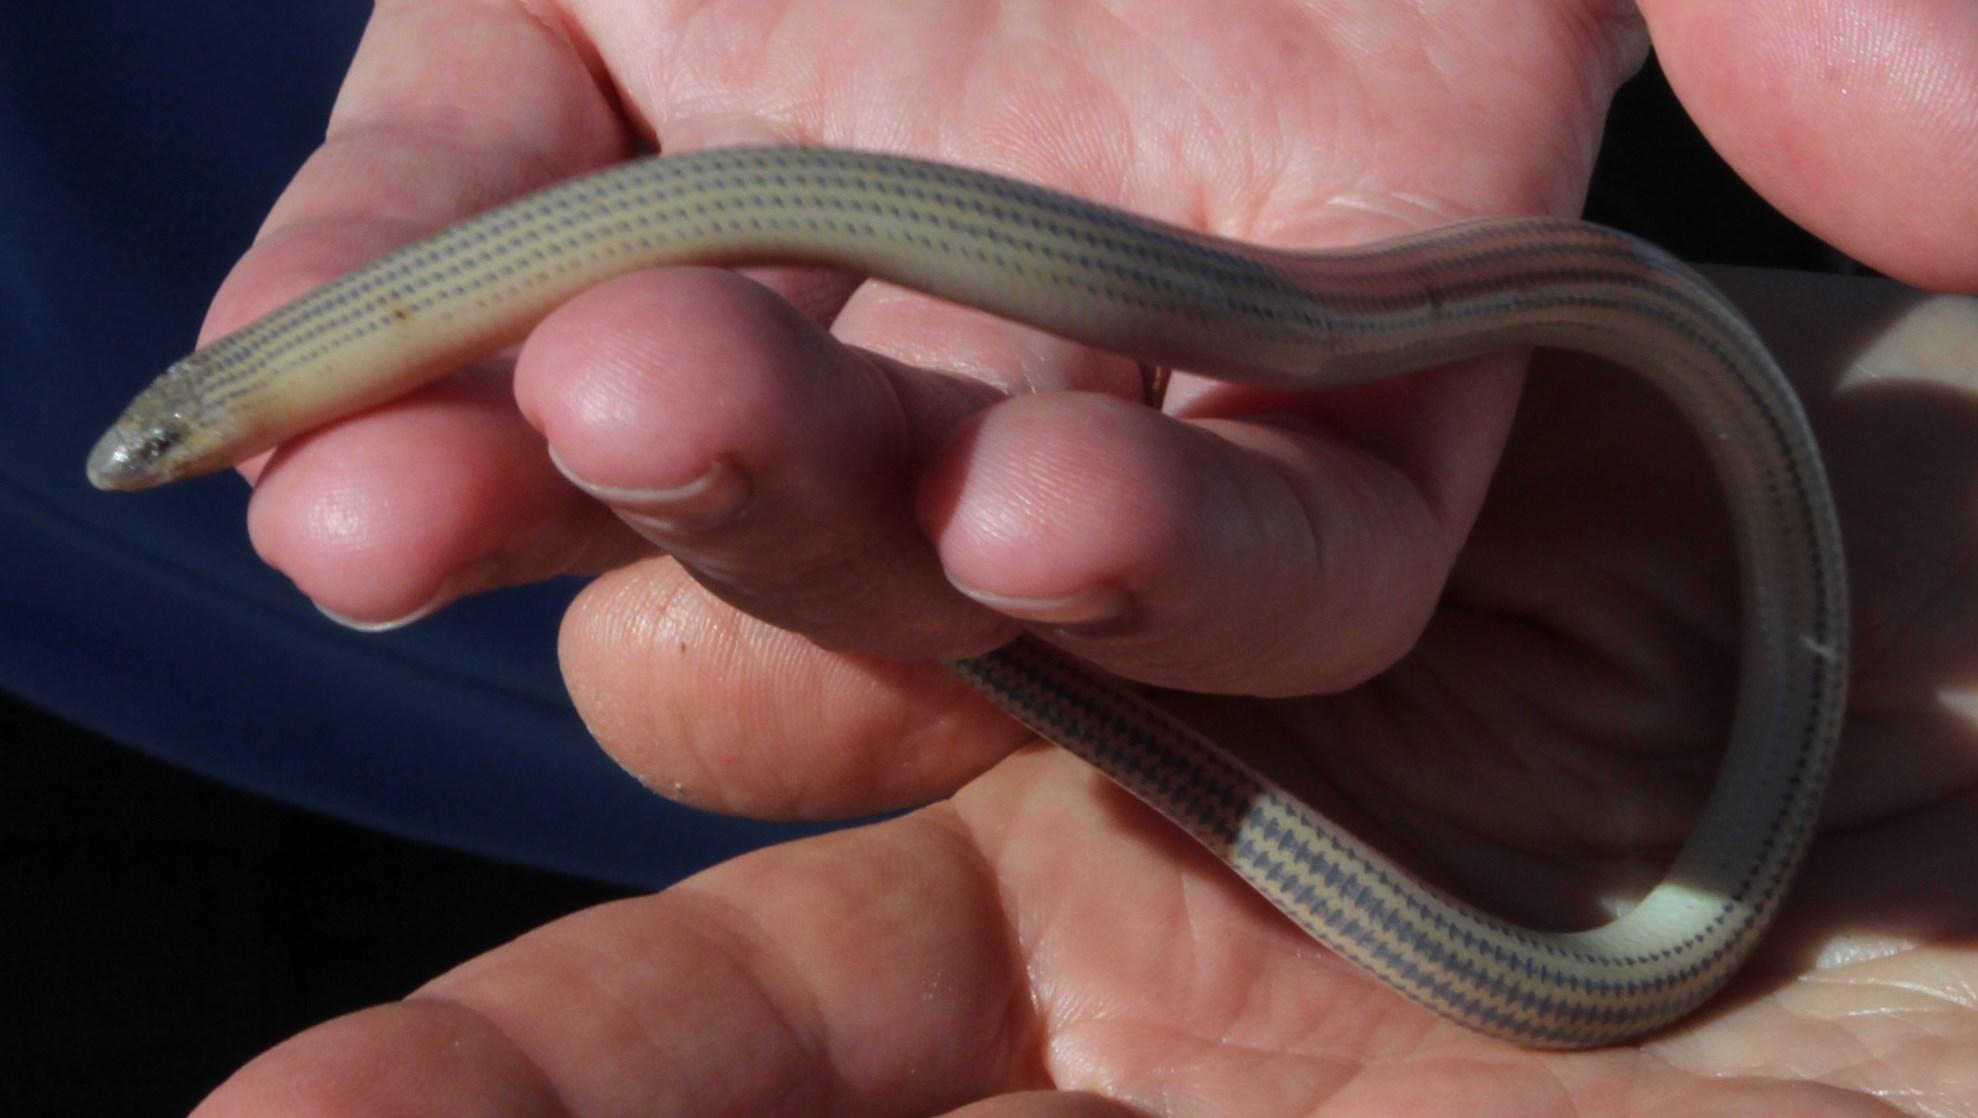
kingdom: Animalia
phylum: Chordata
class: Squamata
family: Scincidae
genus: Acontias
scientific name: Acontias meleagris
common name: Cape legless skink
